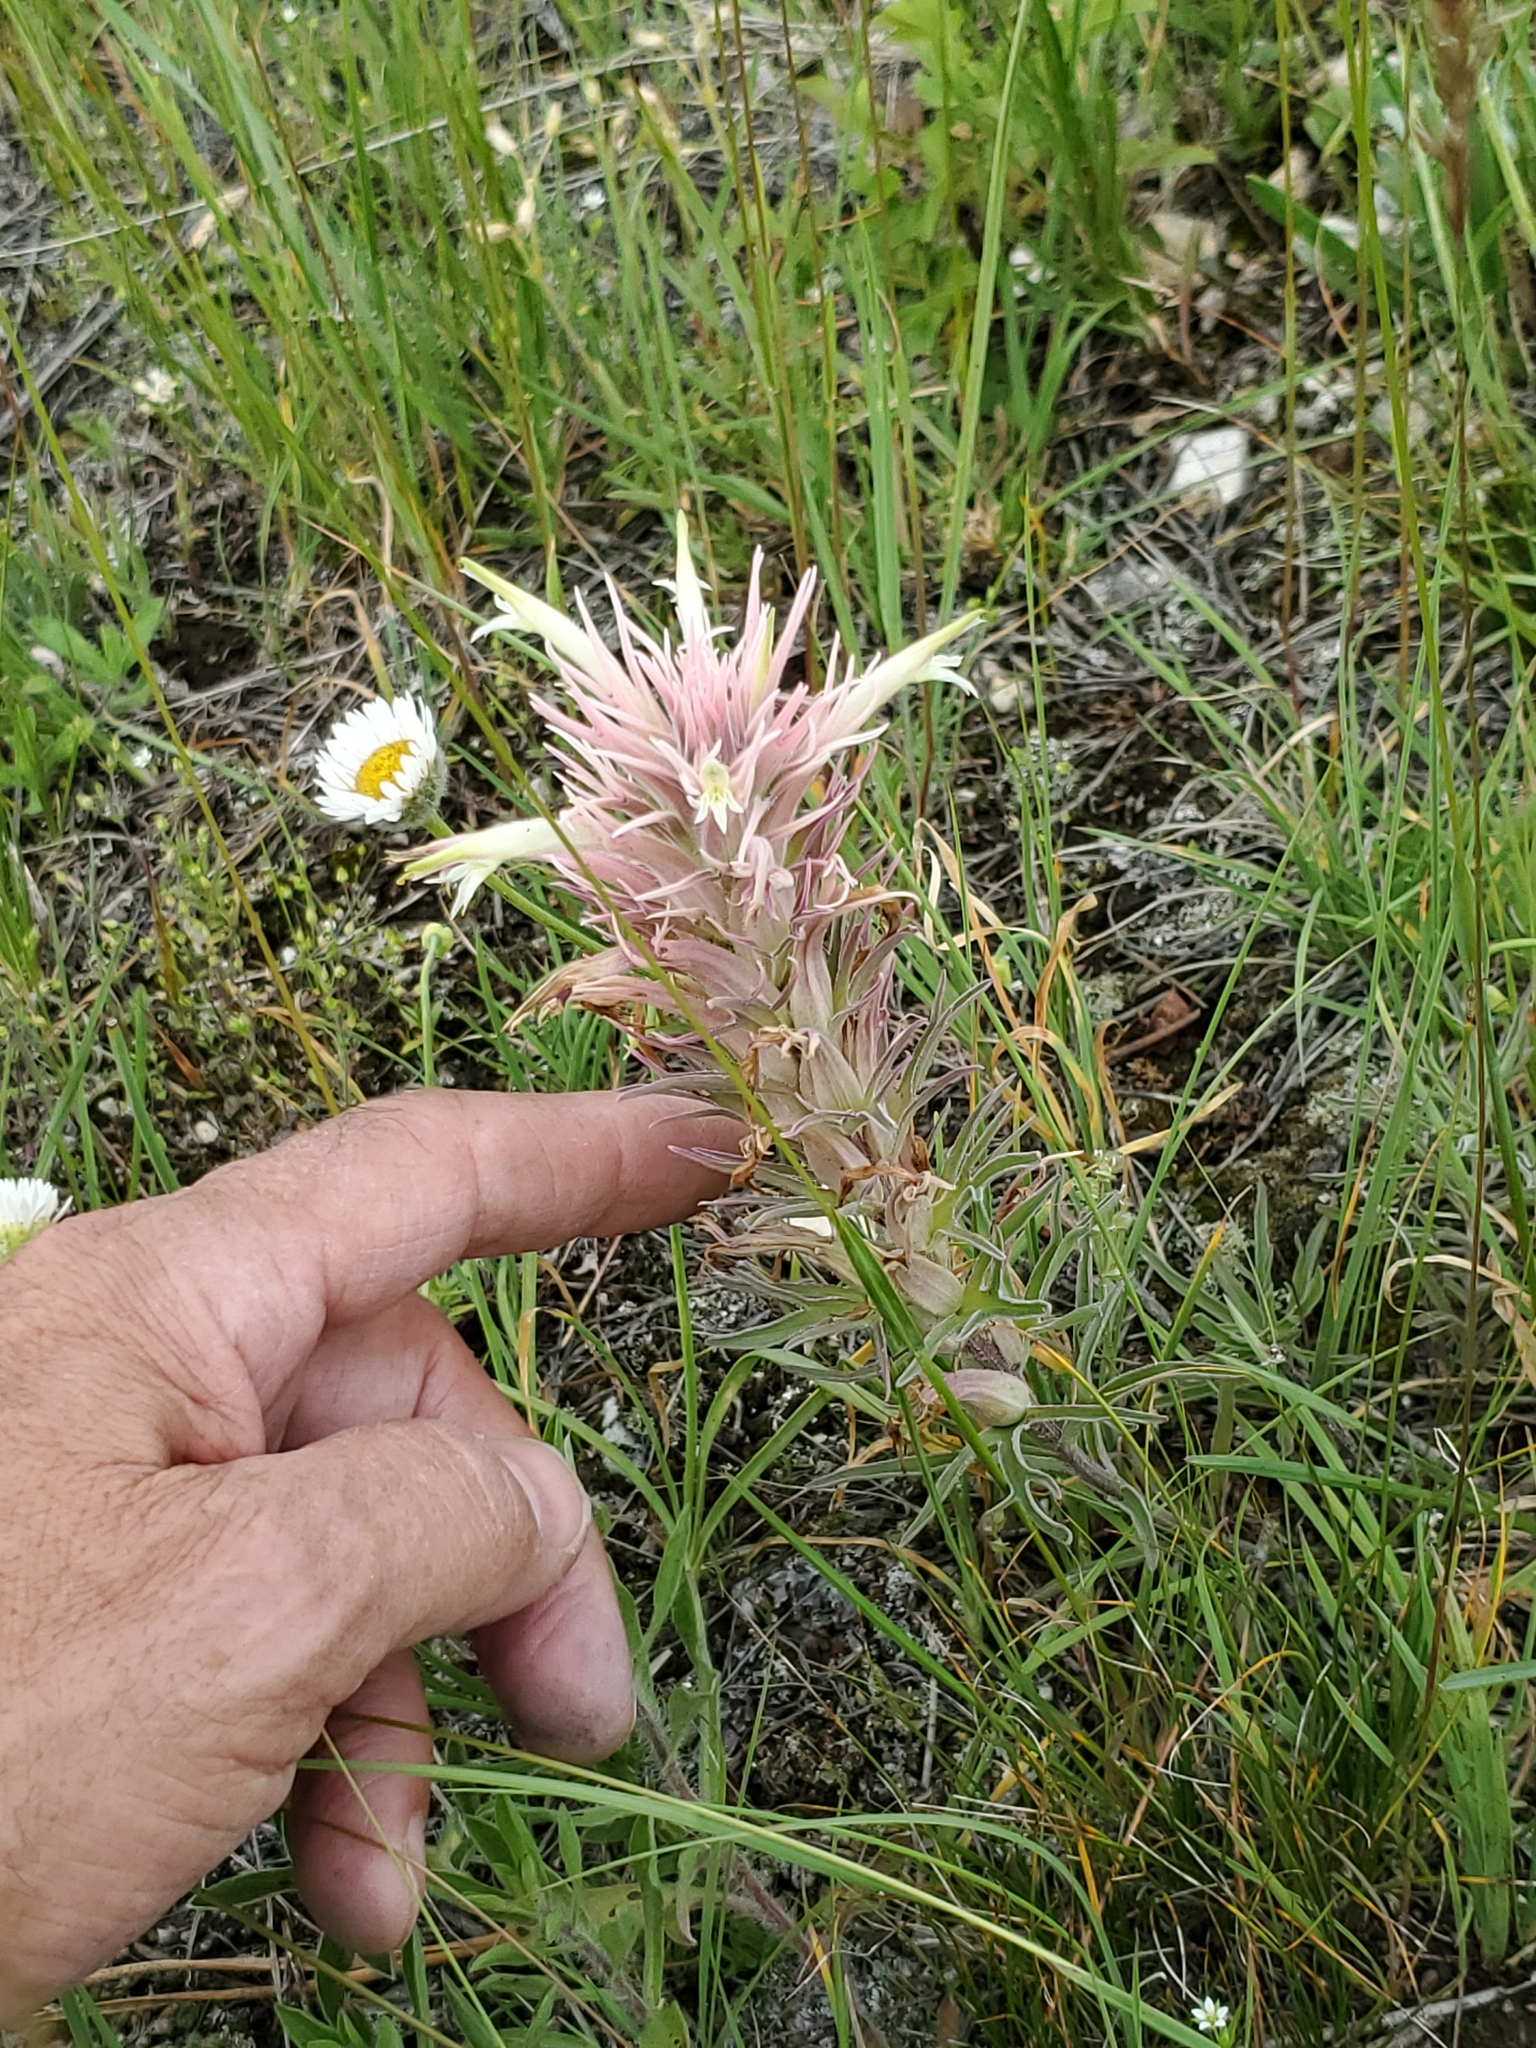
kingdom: Plantae
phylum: Tracheophyta
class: Magnoliopsida
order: Lamiales
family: Orobanchaceae
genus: Castilleja
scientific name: Castilleja sessiliflora
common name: Downy paintbrush
